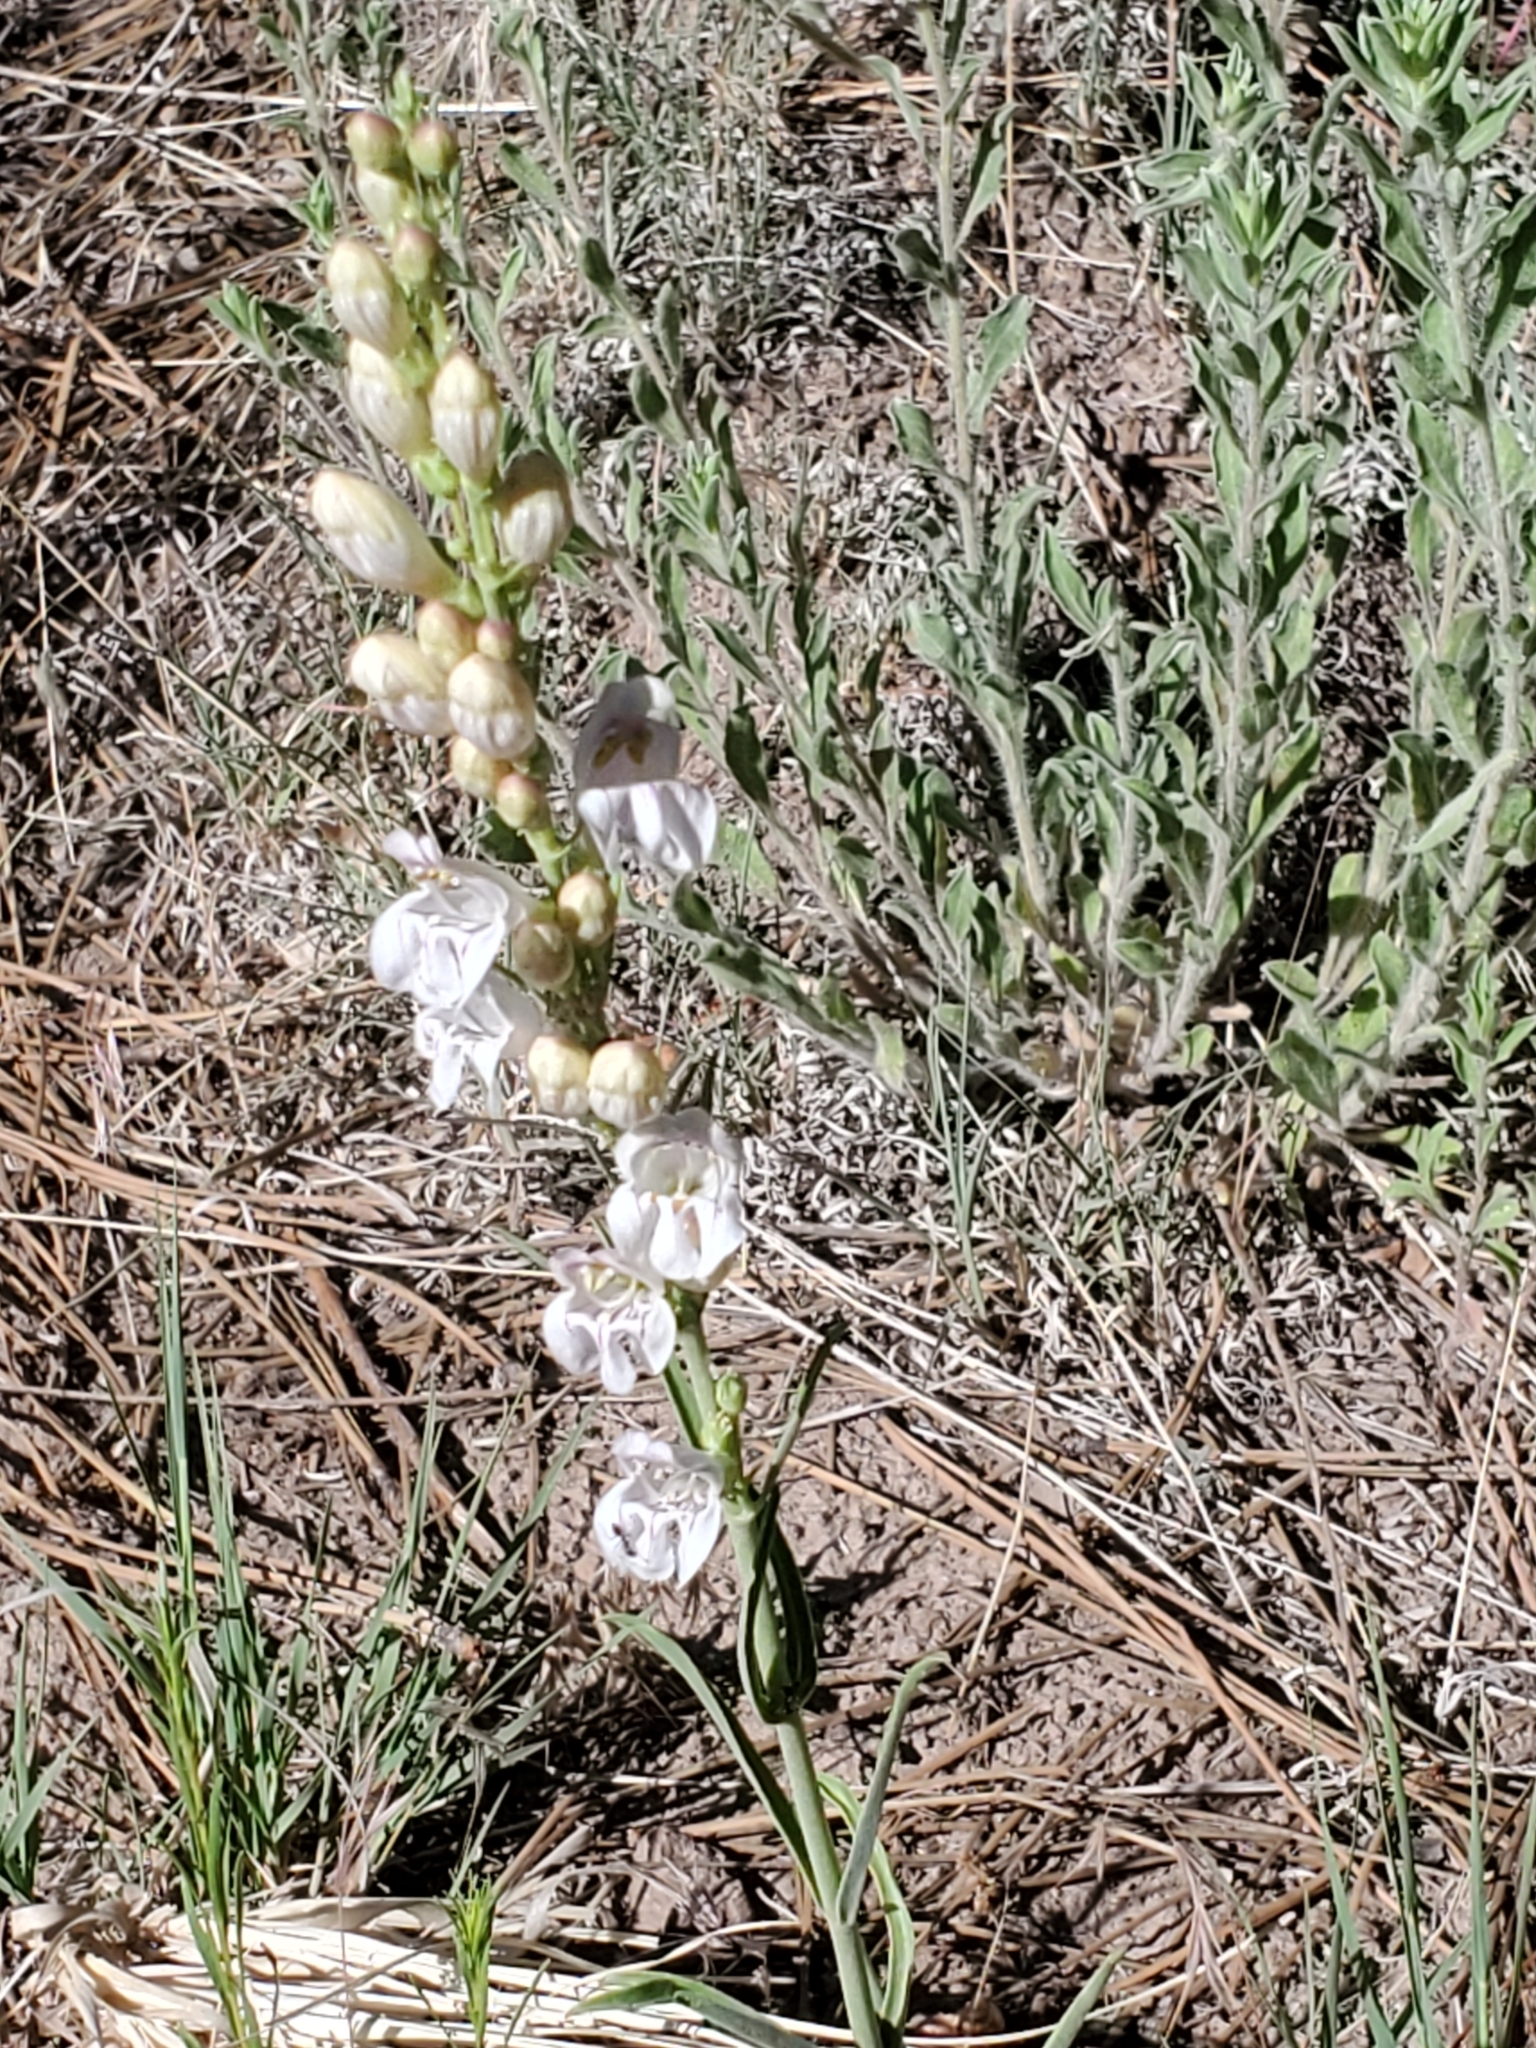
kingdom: Plantae
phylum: Tracheophyta
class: Magnoliopsida
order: Lamiales
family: Plantaginaceae
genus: Penstemon
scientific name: Penstemon virgatus
